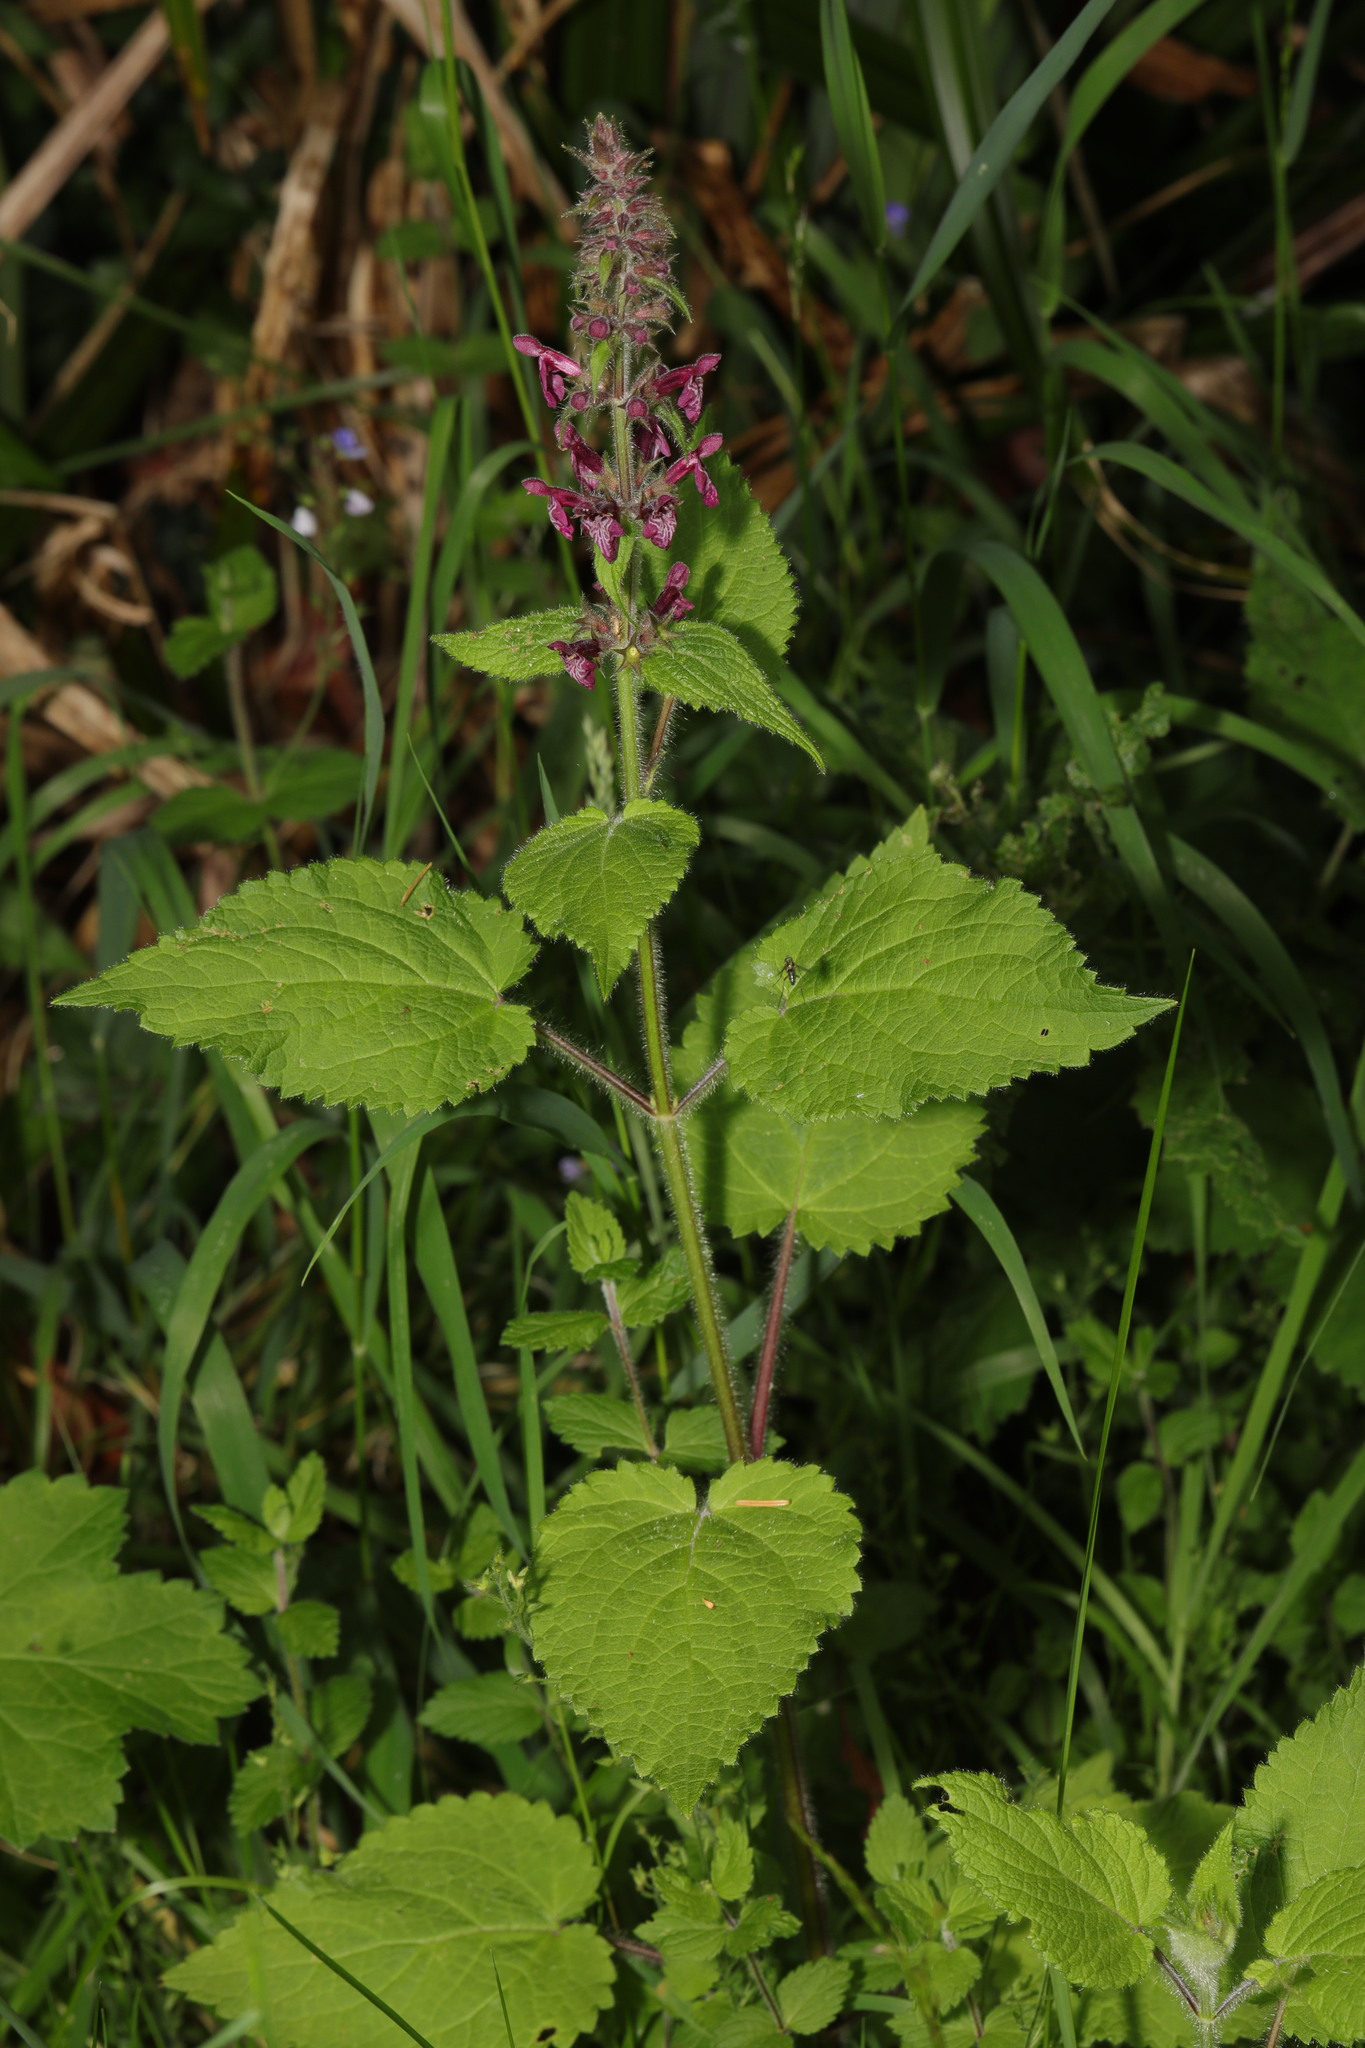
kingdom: Plantae
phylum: Tracheophyta
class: Magnoliopsida
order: Lamiales
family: Lamiaceae
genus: Stachys
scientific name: Stachys sylvatica
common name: Hedge woundwort
